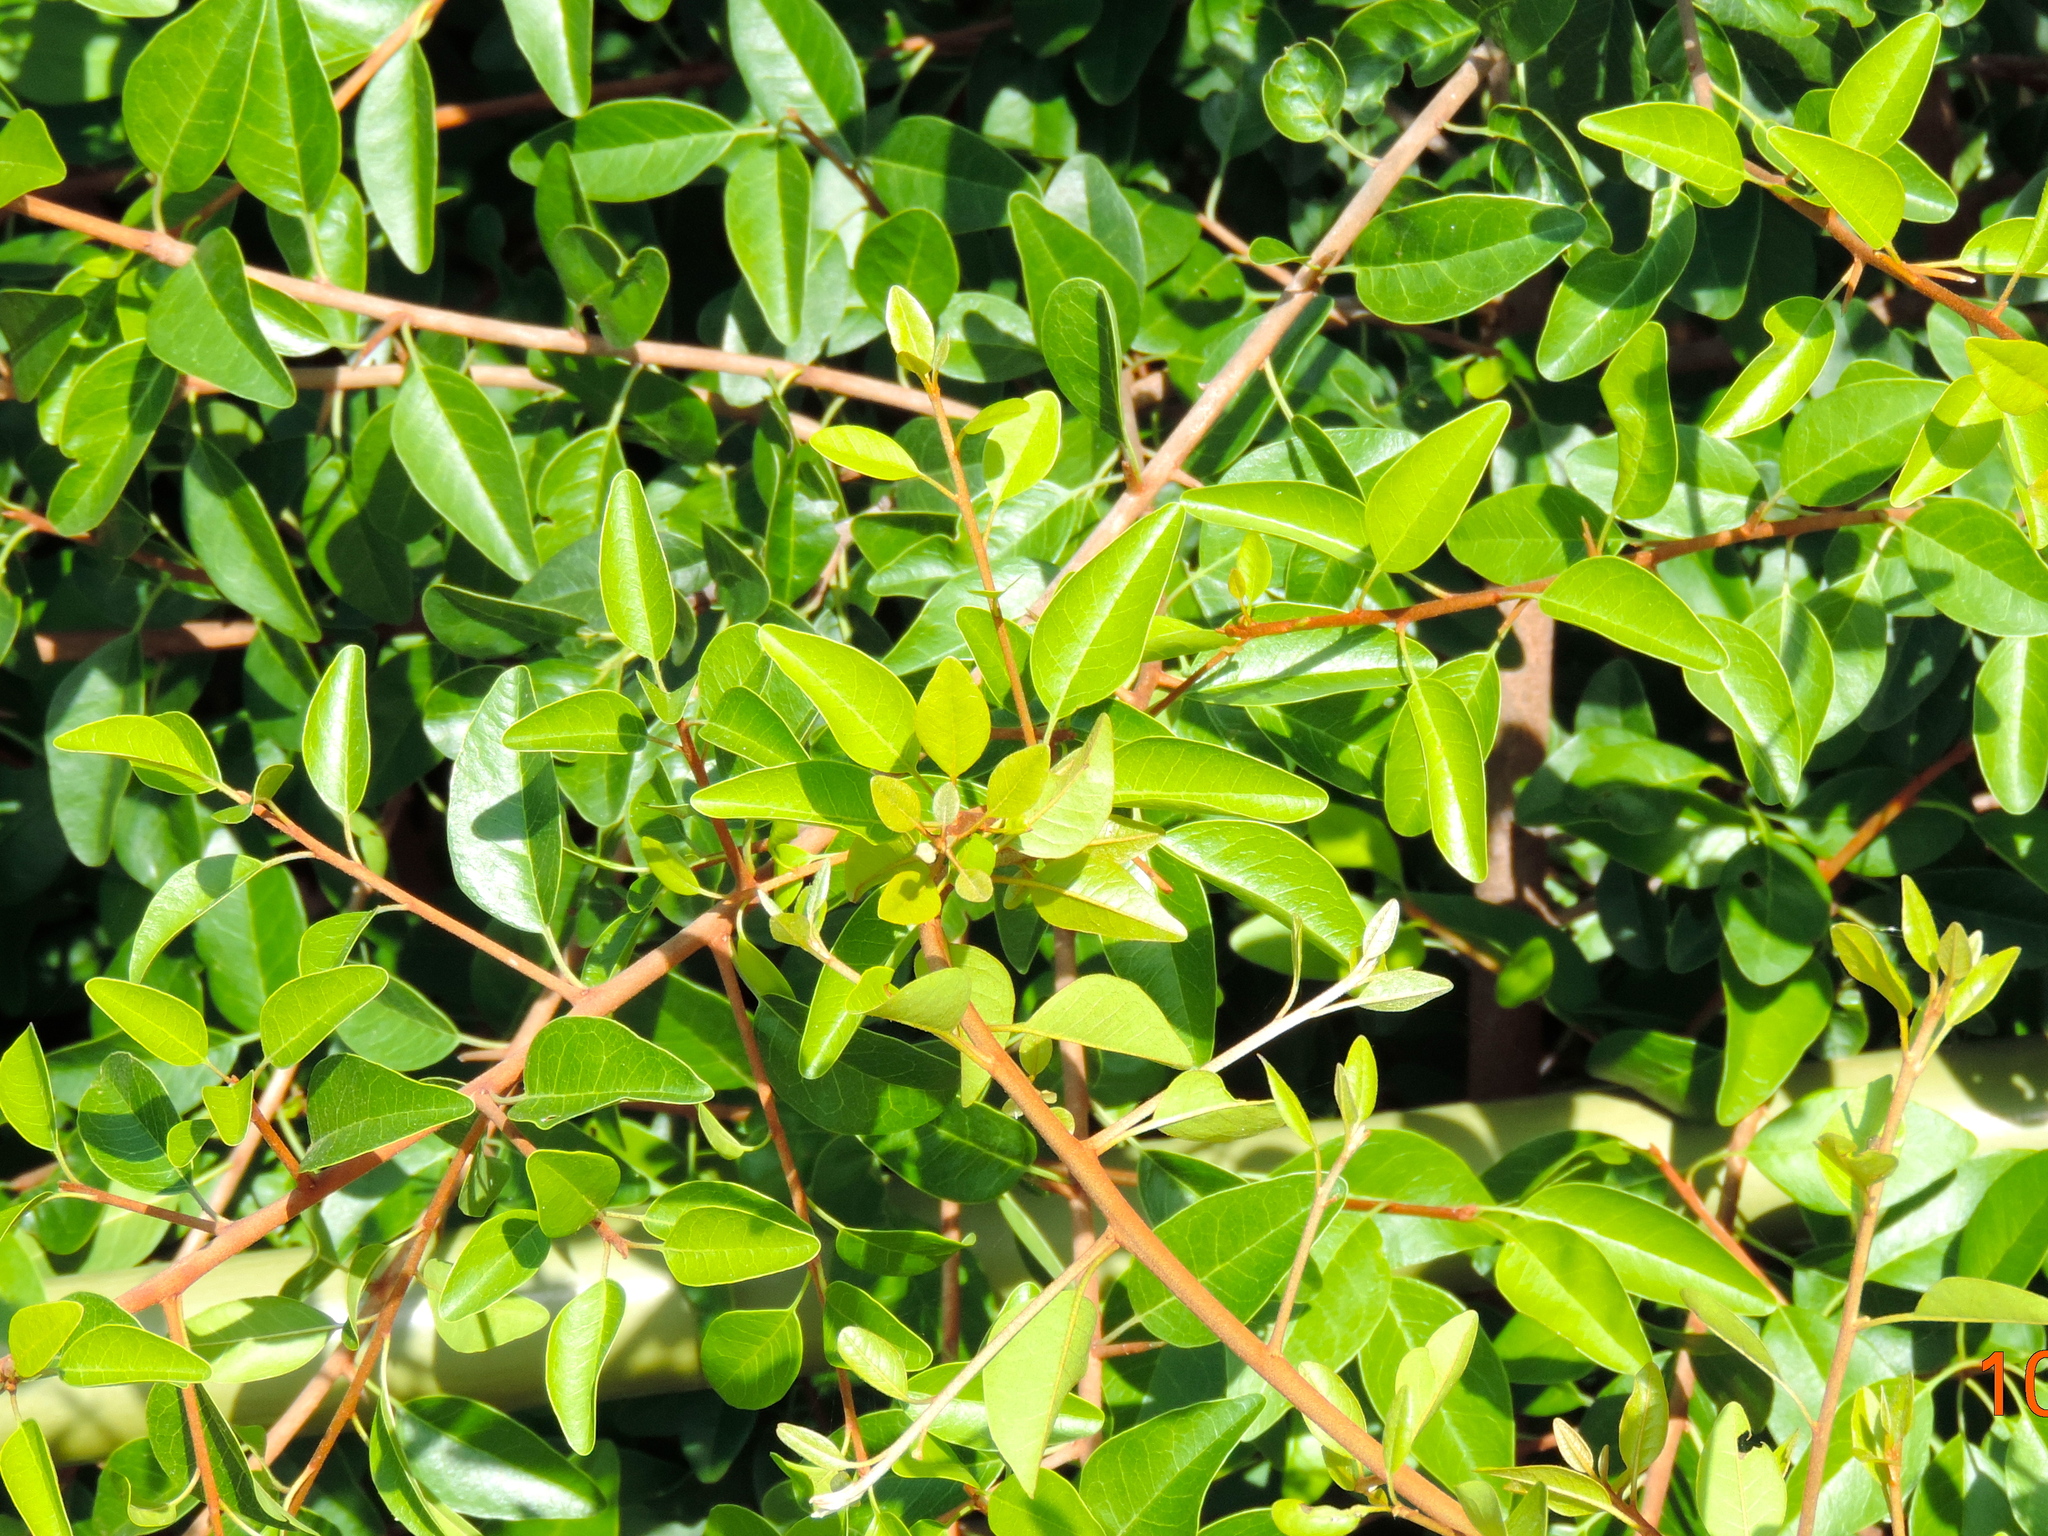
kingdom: Plantae
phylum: Tracheophyta
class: Magnoliopsida
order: Malpighiales
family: Erythroxylaceae
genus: Erythroxylum
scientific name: Erythroxylum mexicanum
